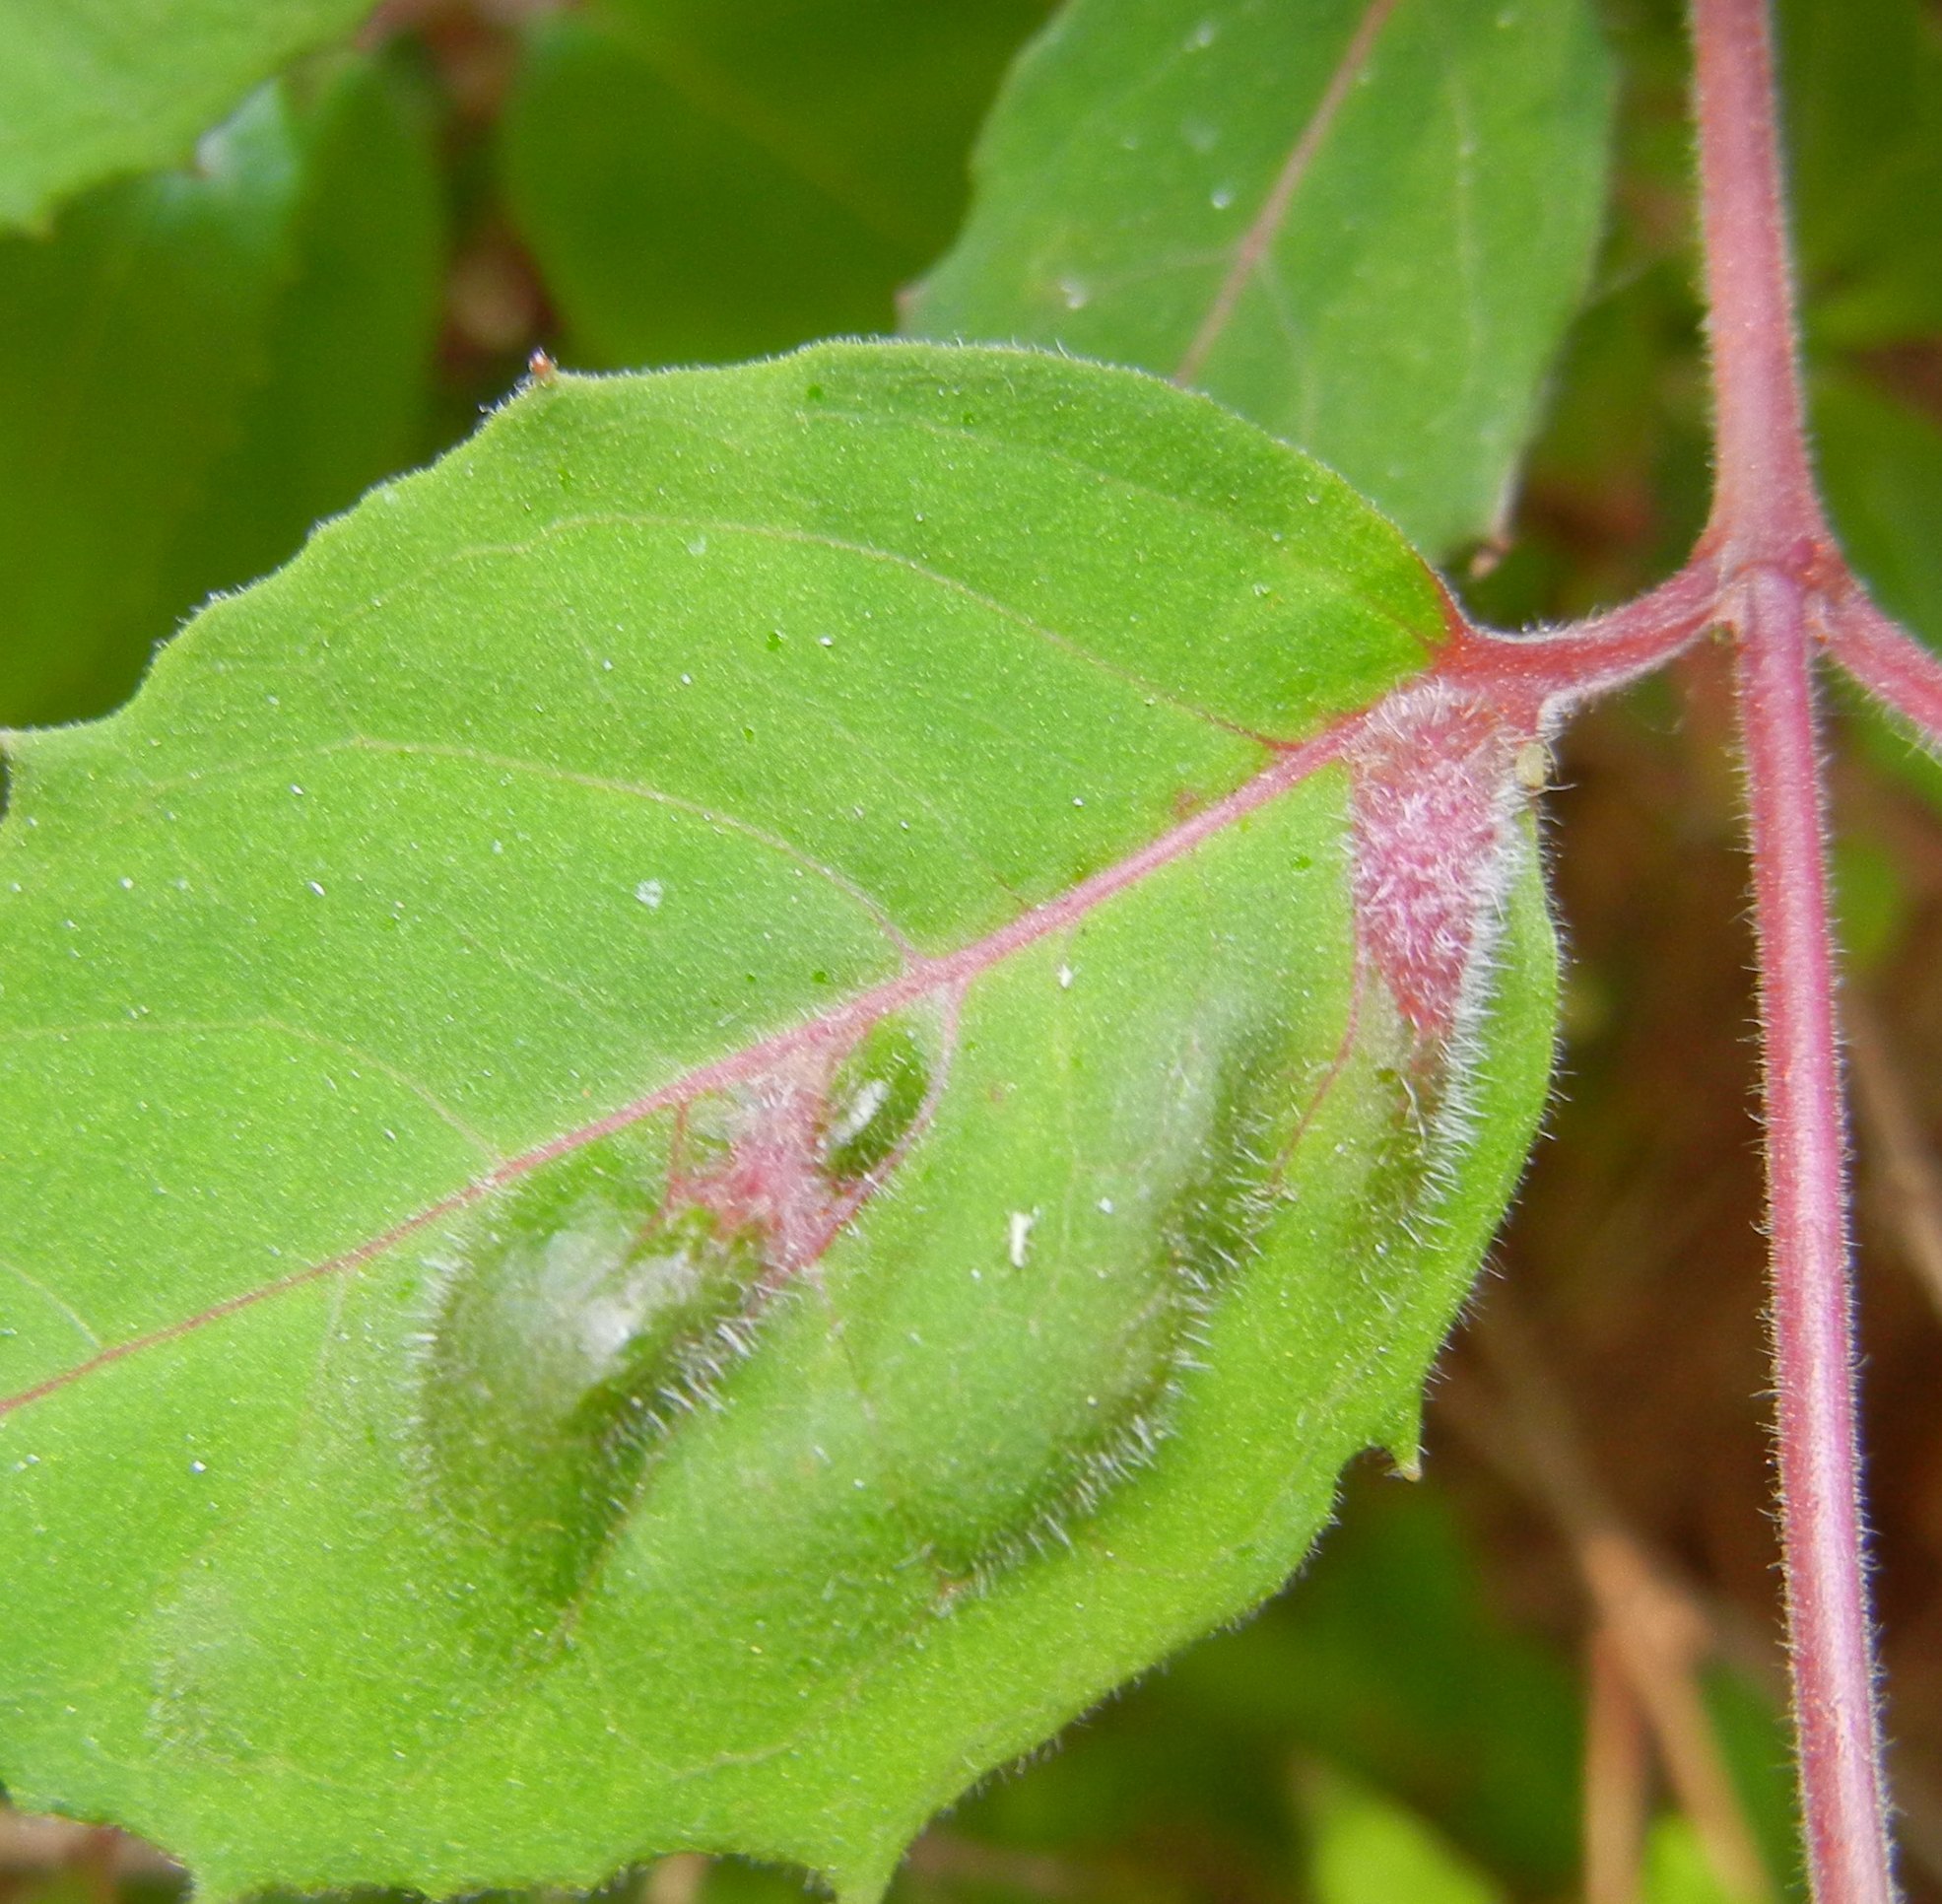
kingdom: Animalia
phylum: Arthropoda
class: Arachnida
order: Trombidiformes
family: Eriophyidae
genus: Aculops
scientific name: Aculops fuchsiae
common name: Fuchsia gall mite
